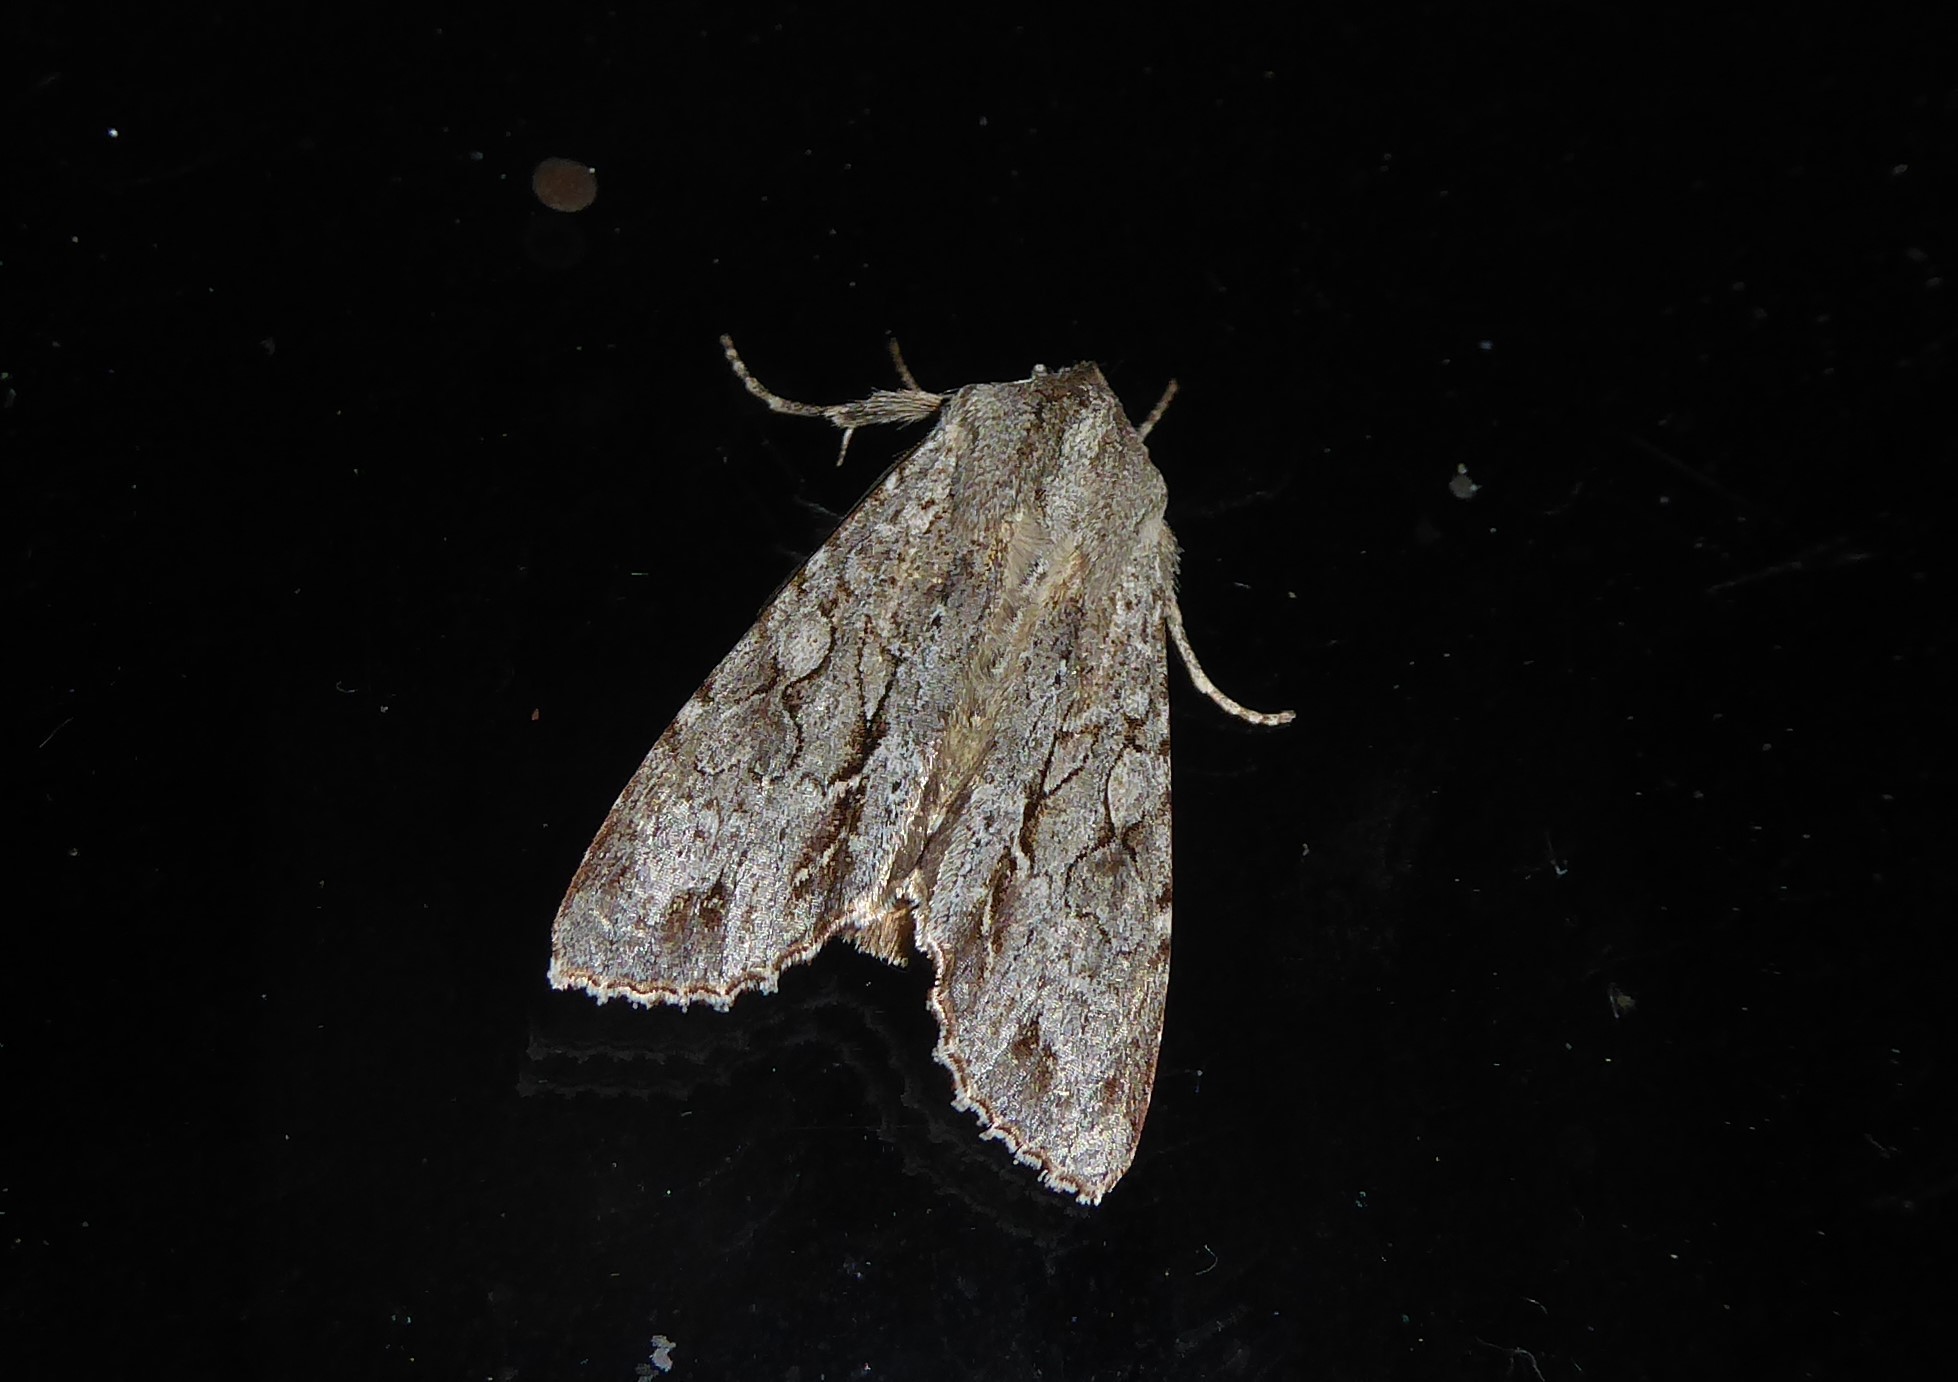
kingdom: Animalia
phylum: Arthropoda
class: Insecta
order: Lepidoptera
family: Noctuidae
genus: Ichneutica
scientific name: Ichneutica
